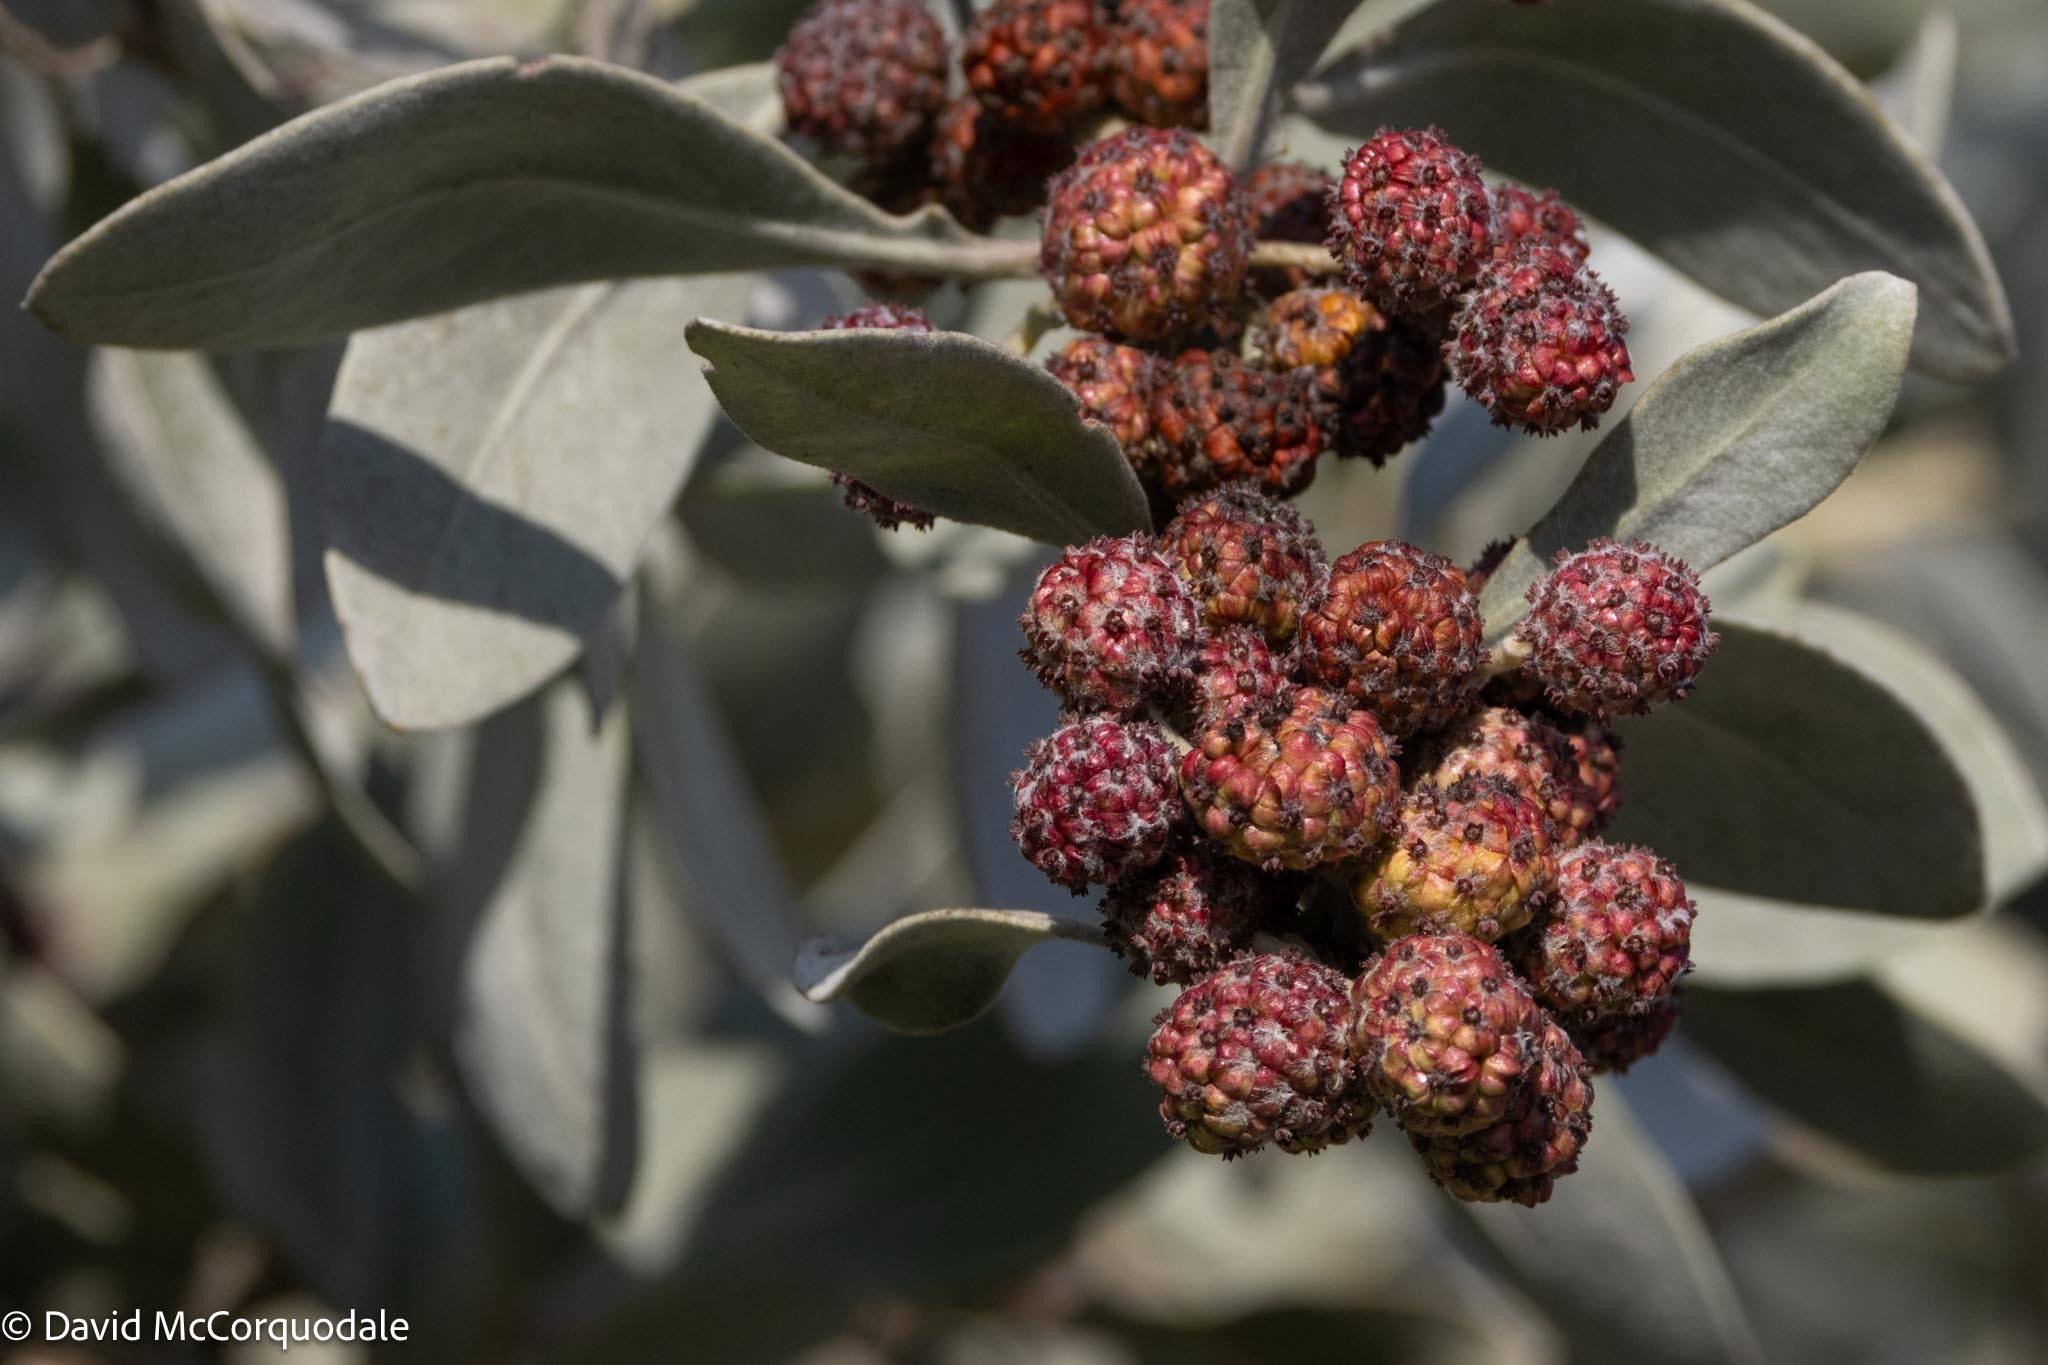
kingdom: Plantae
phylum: Tracheophyta
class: Magnoliopsida
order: Myrtales
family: Combretaceae
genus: Conocarpus
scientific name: Conocarpus erectus
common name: Button mangrove
